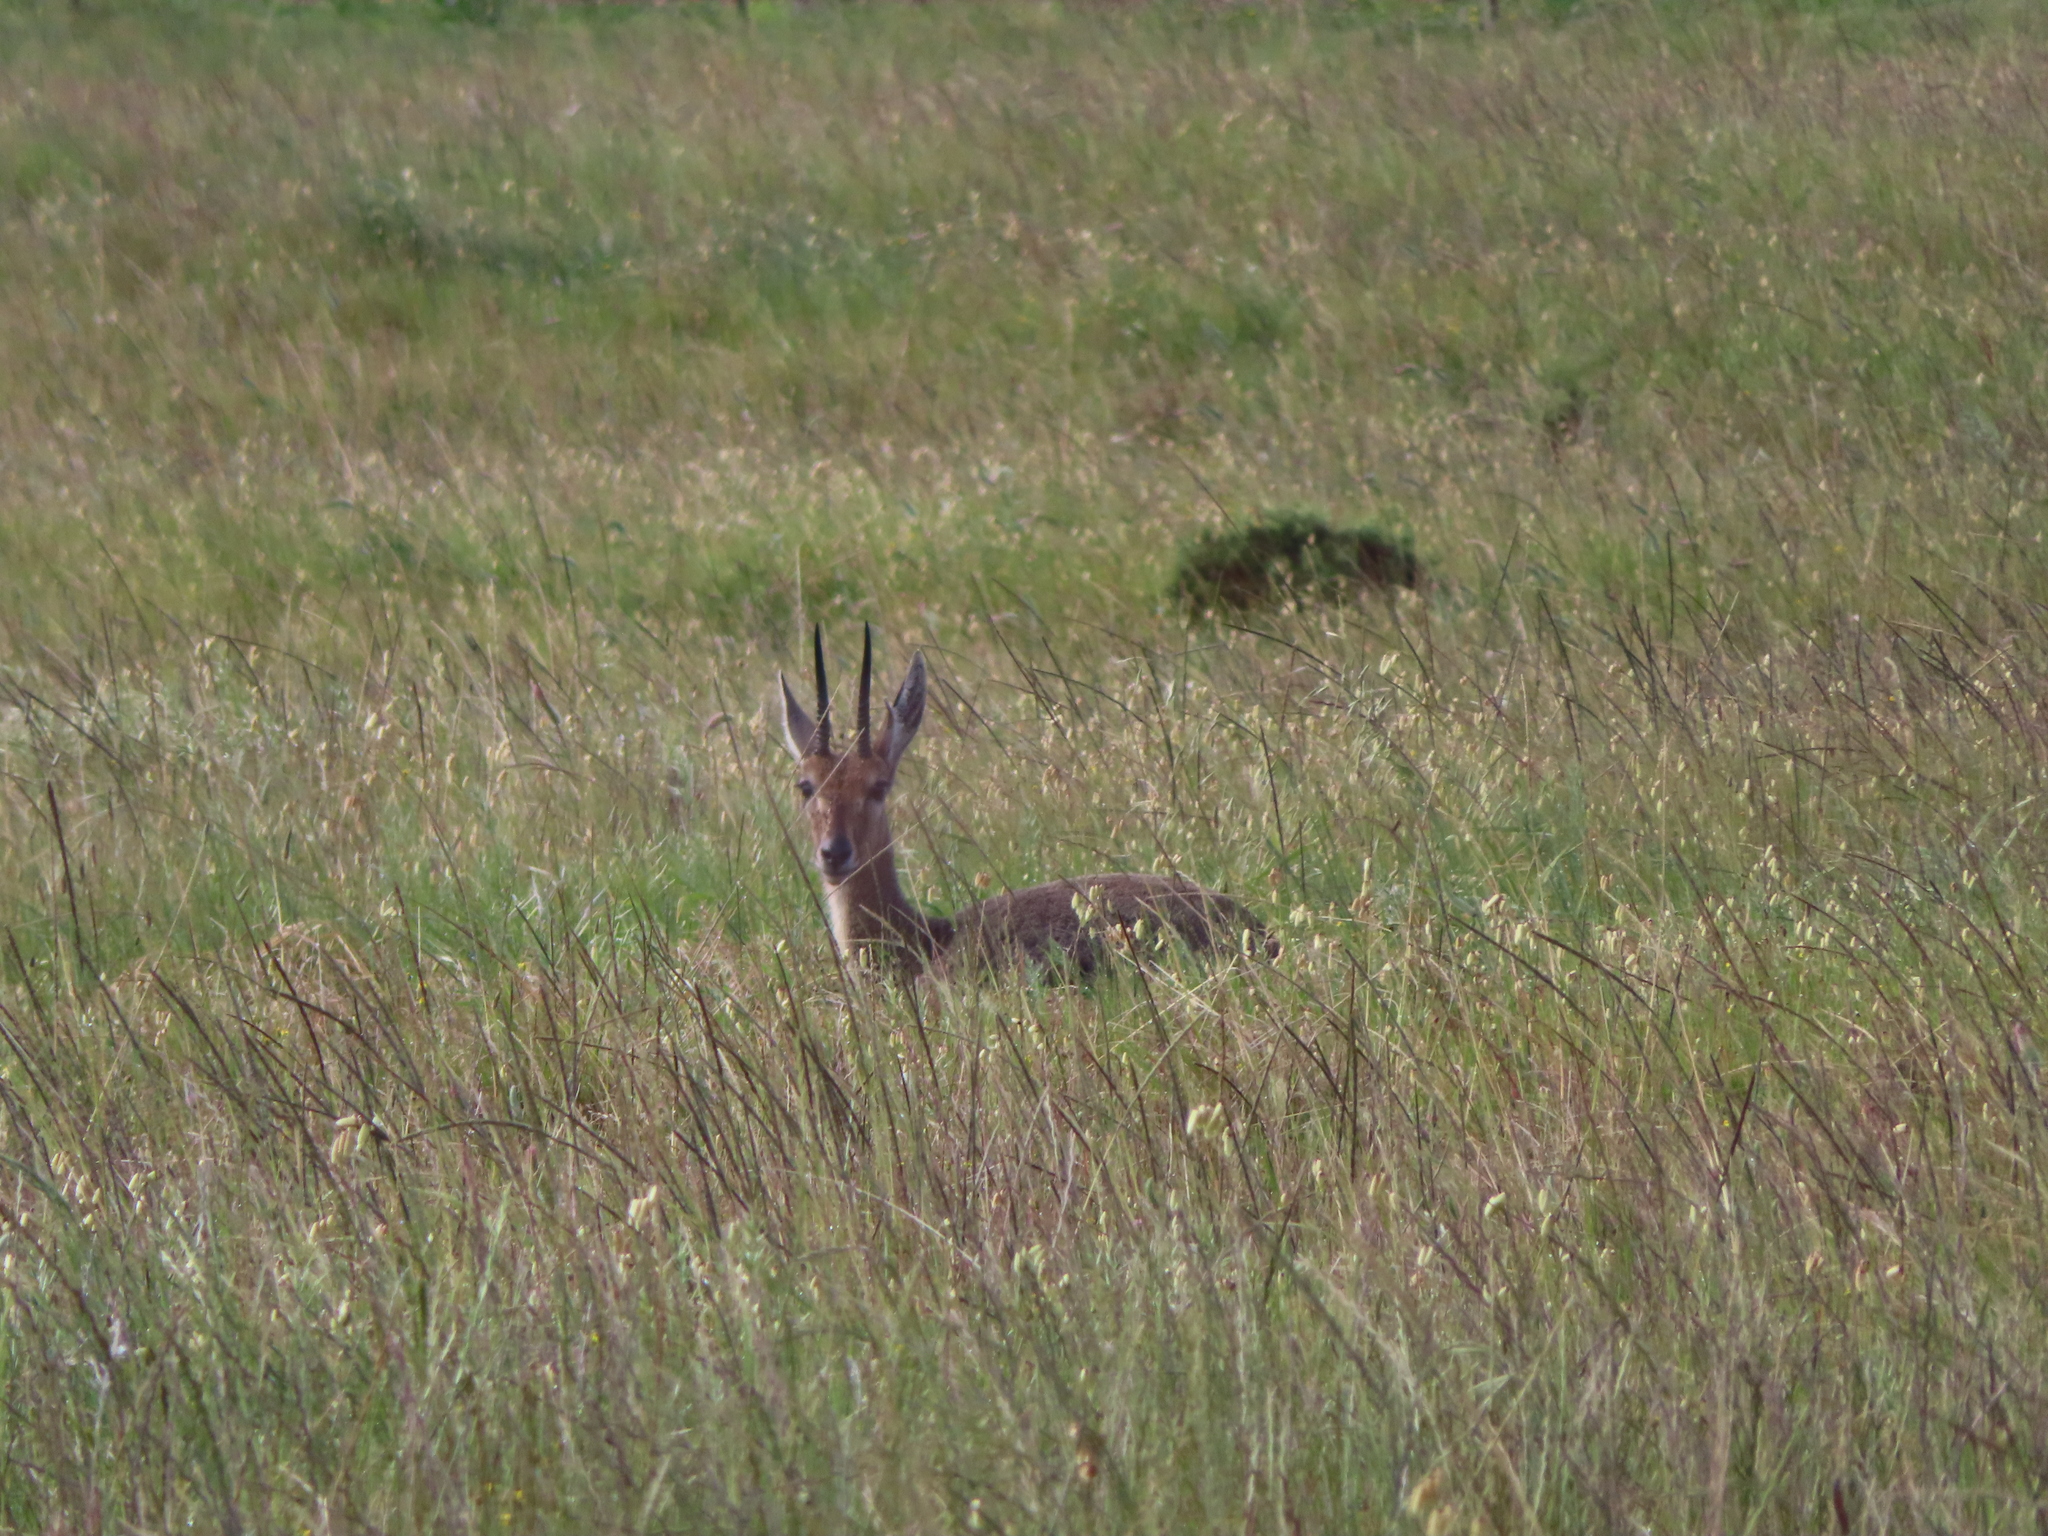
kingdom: Animalia
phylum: Chordata
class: Mammalia
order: Artiodactyla
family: Bovidae
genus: Pelea
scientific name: Pelea capreolus
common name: Common rhebok
